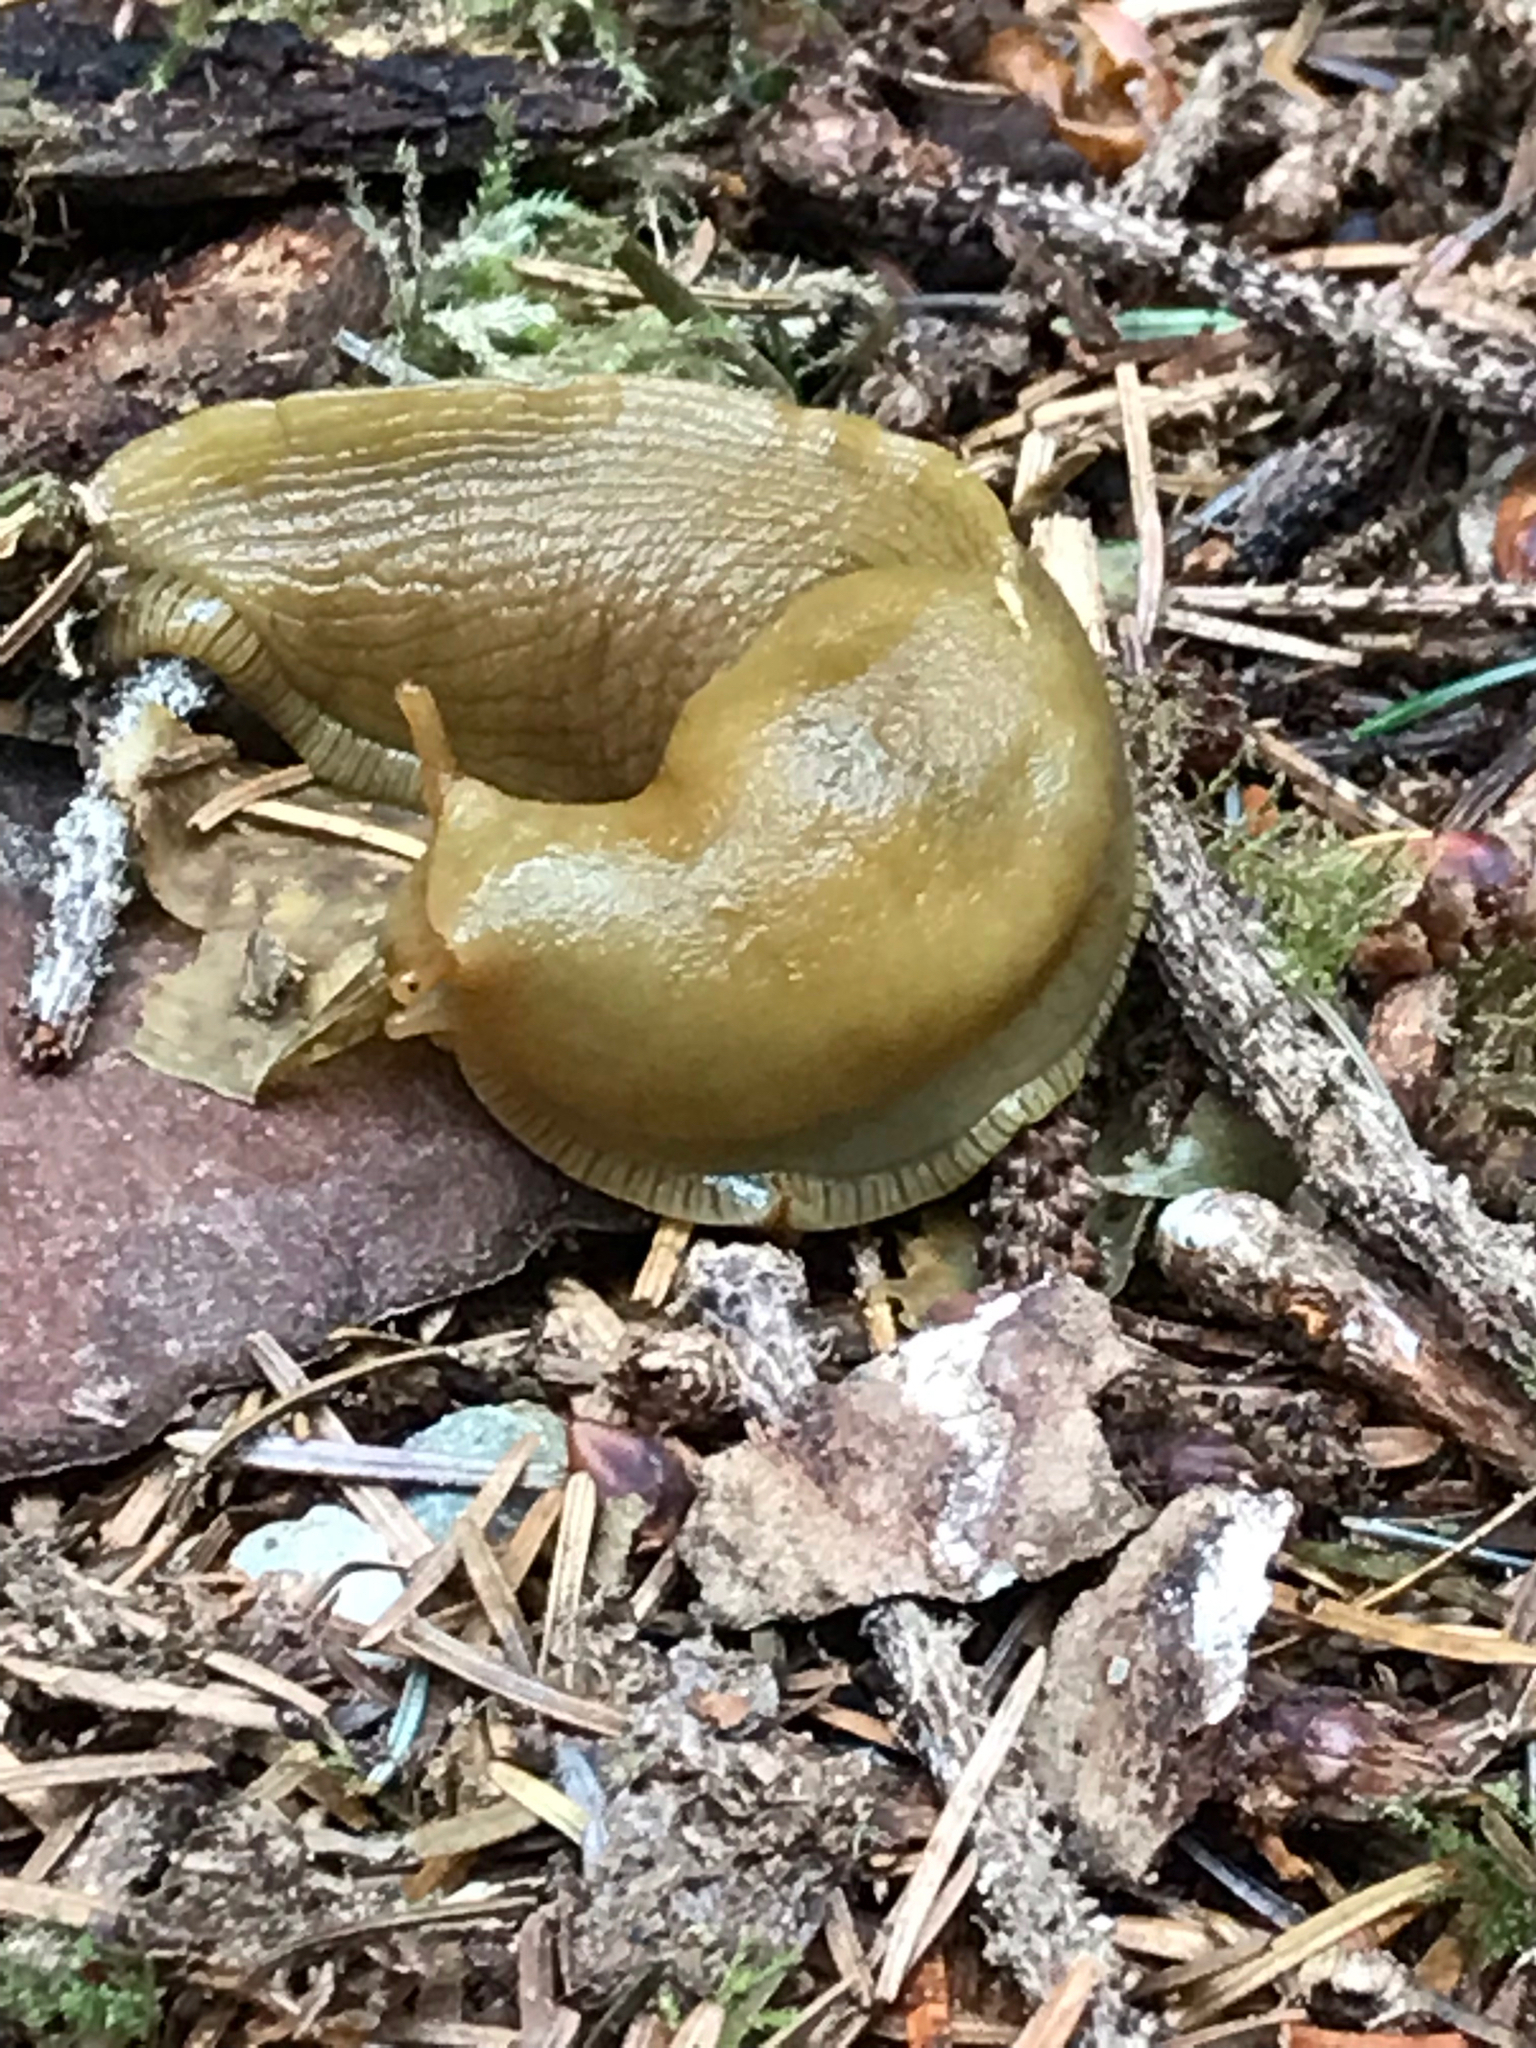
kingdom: Animalia
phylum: Mollusca
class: Gastropoda
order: Stylommatophora
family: Ariolimacidae
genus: Ariolimax
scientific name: Ariolimax columbianus
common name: Pacific banana slug
